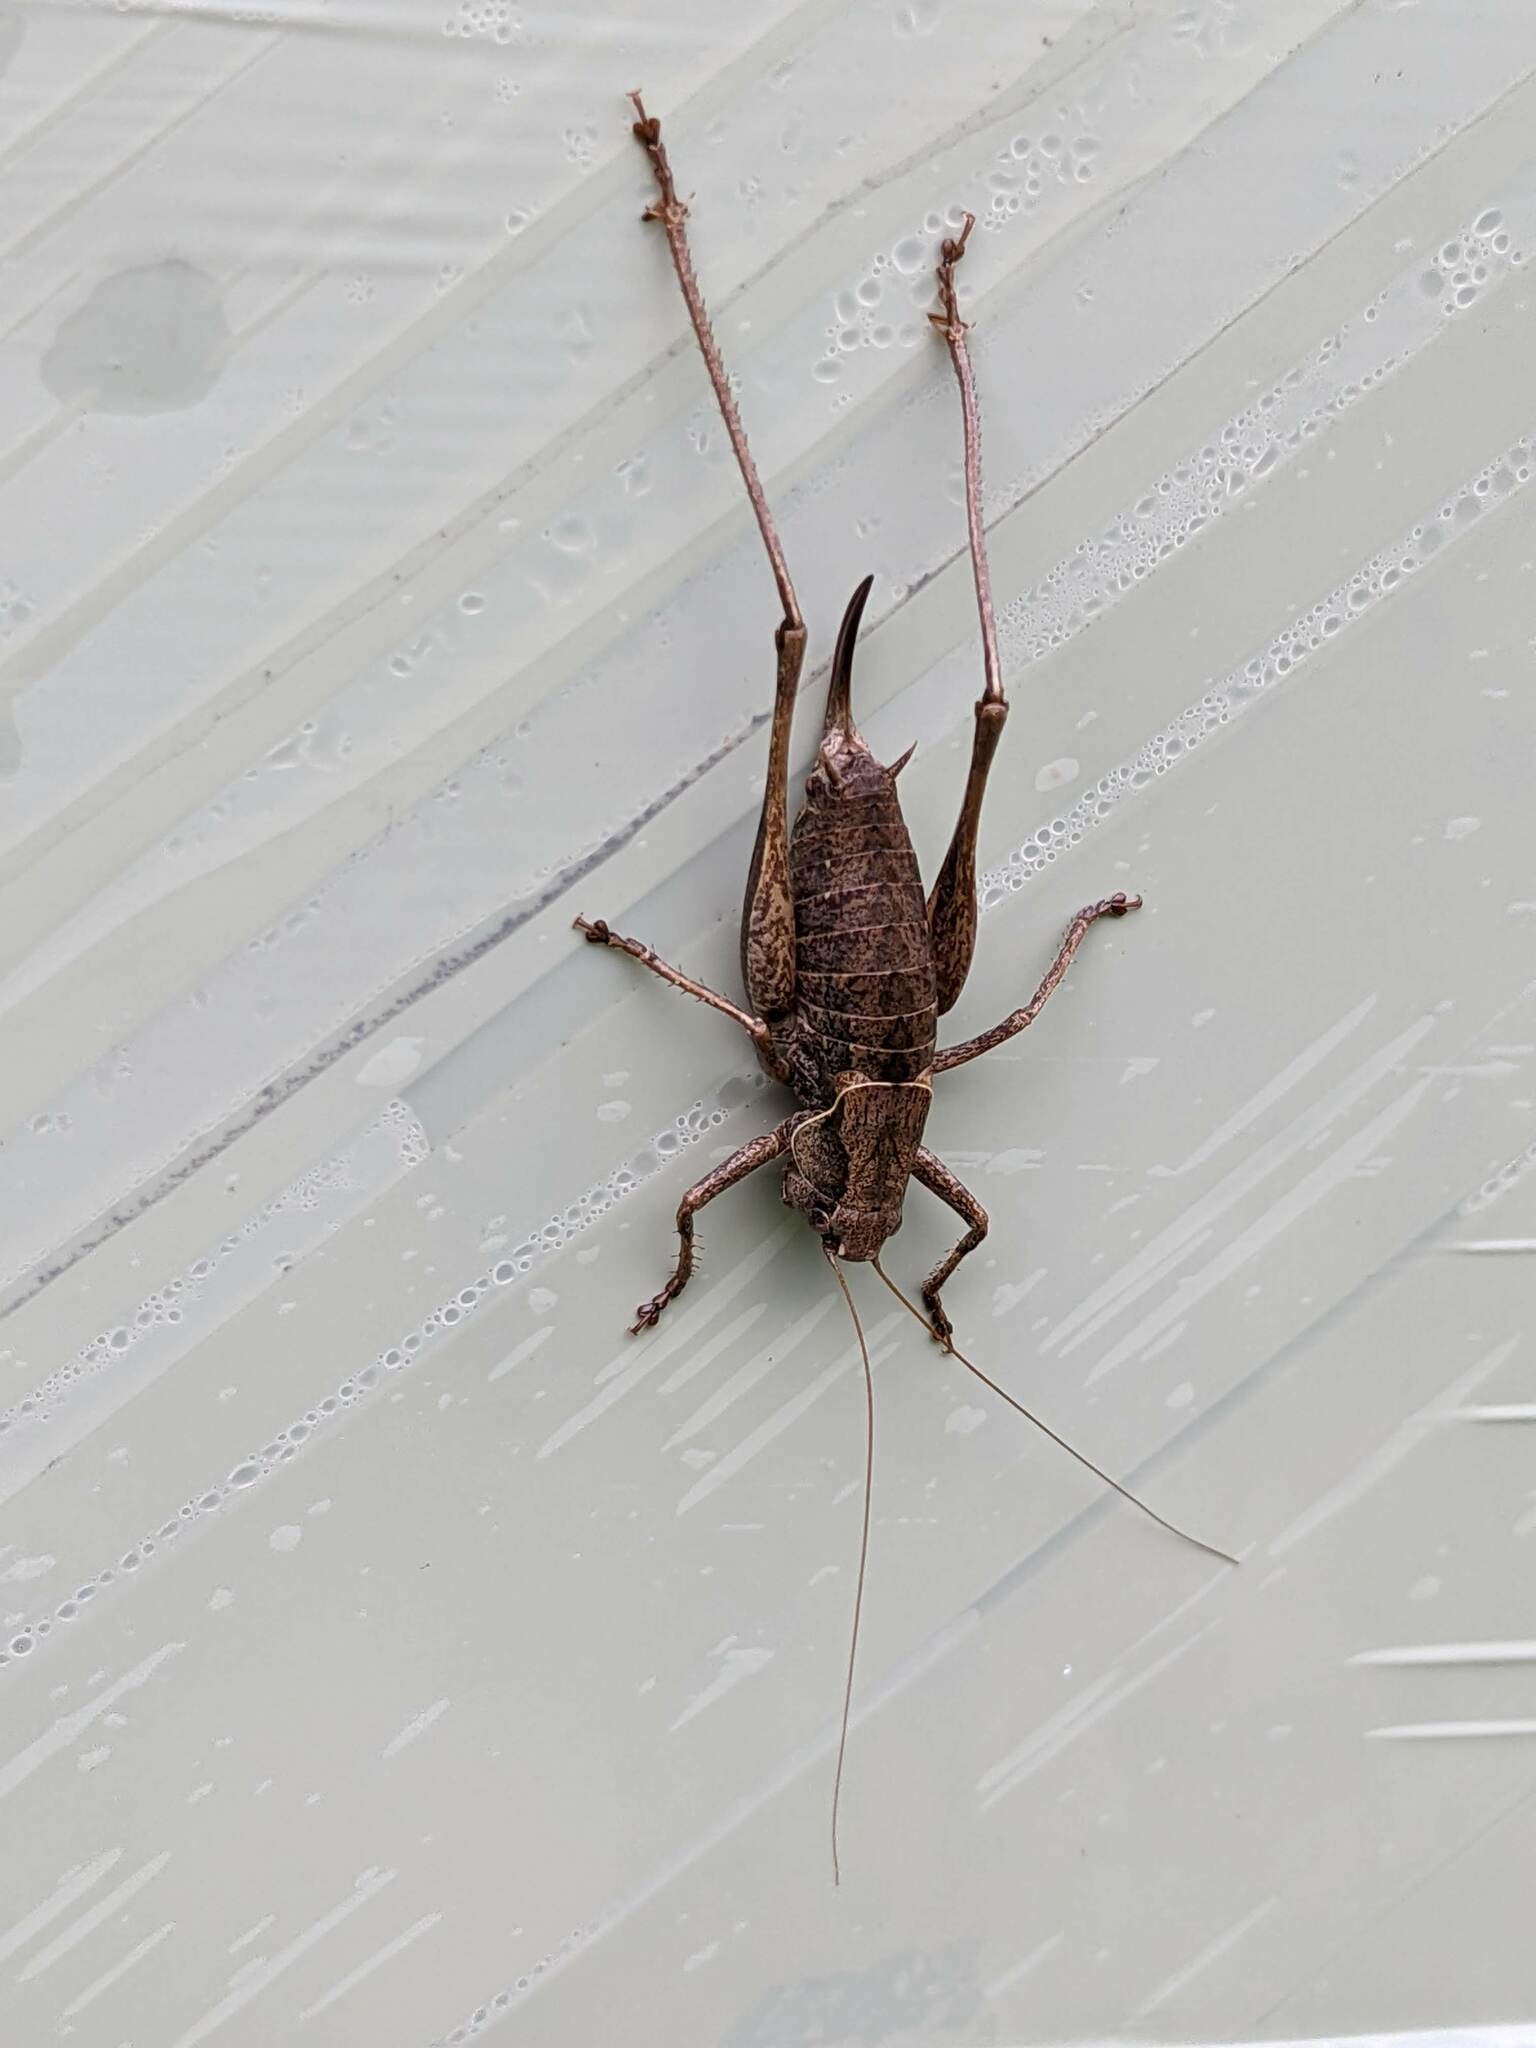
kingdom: Animalia
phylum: Arthropoda
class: Insecta
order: Orthoptera
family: Tettigoniidae
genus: Pholidoptera
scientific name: Pholidoptera griseoaptera
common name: Dark bush-cricket
